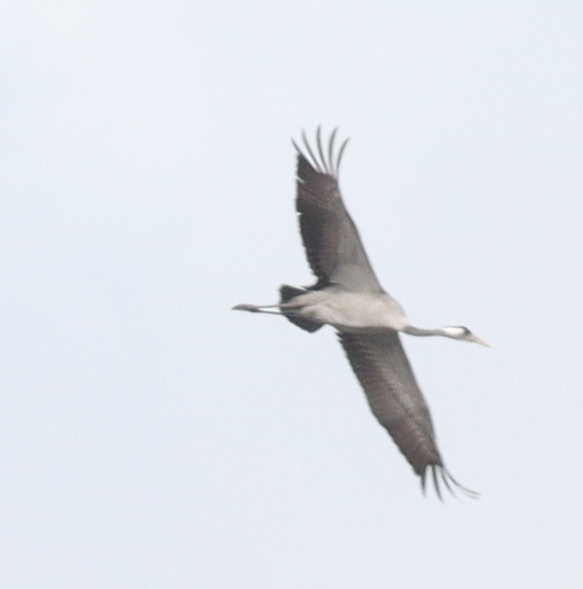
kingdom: Animalia
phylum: Chordata
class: Aves
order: Gruiformes
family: Gruidae
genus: Grus
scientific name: Grus grus
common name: Common crane
